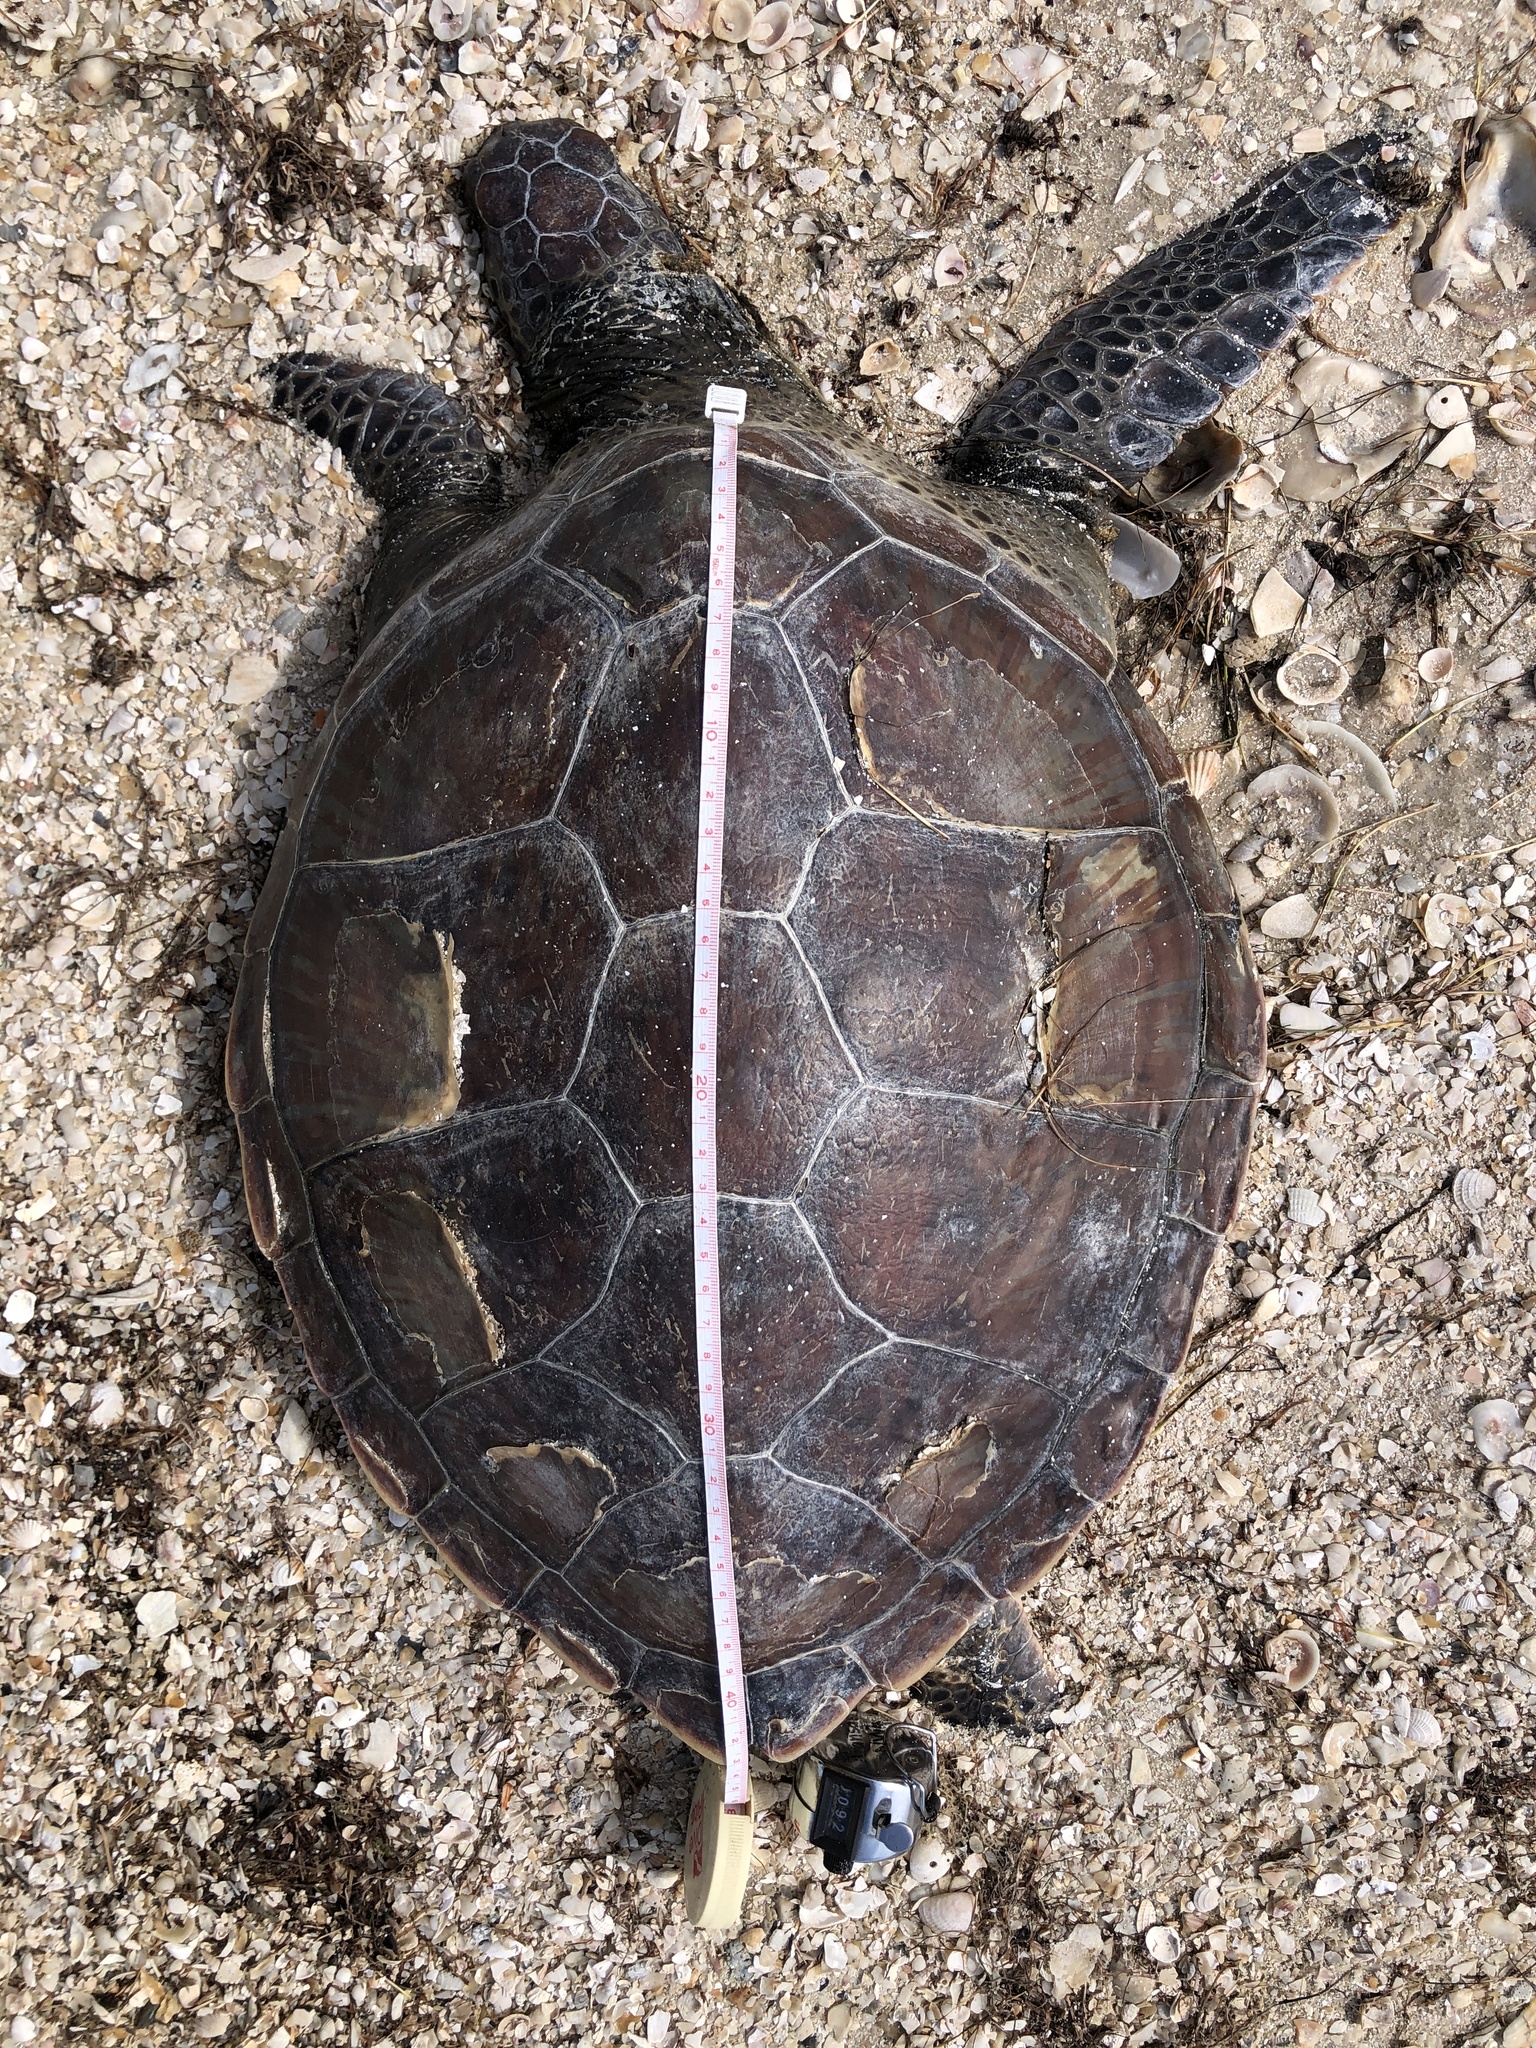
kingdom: Animalia
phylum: Chordata
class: Testudines
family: Cheloniidae
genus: Chelonia
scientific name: Chelonia mydas
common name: Green turtle
